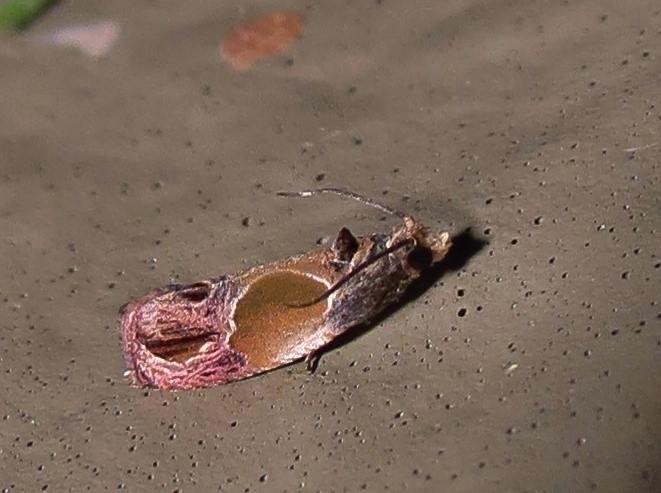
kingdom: Animalia
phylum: Arthropoda
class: Insecta
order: Lepidoptera
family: Tortricidae
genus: Eumarozia
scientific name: Eumarozia malachitana
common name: Sculptured moth
